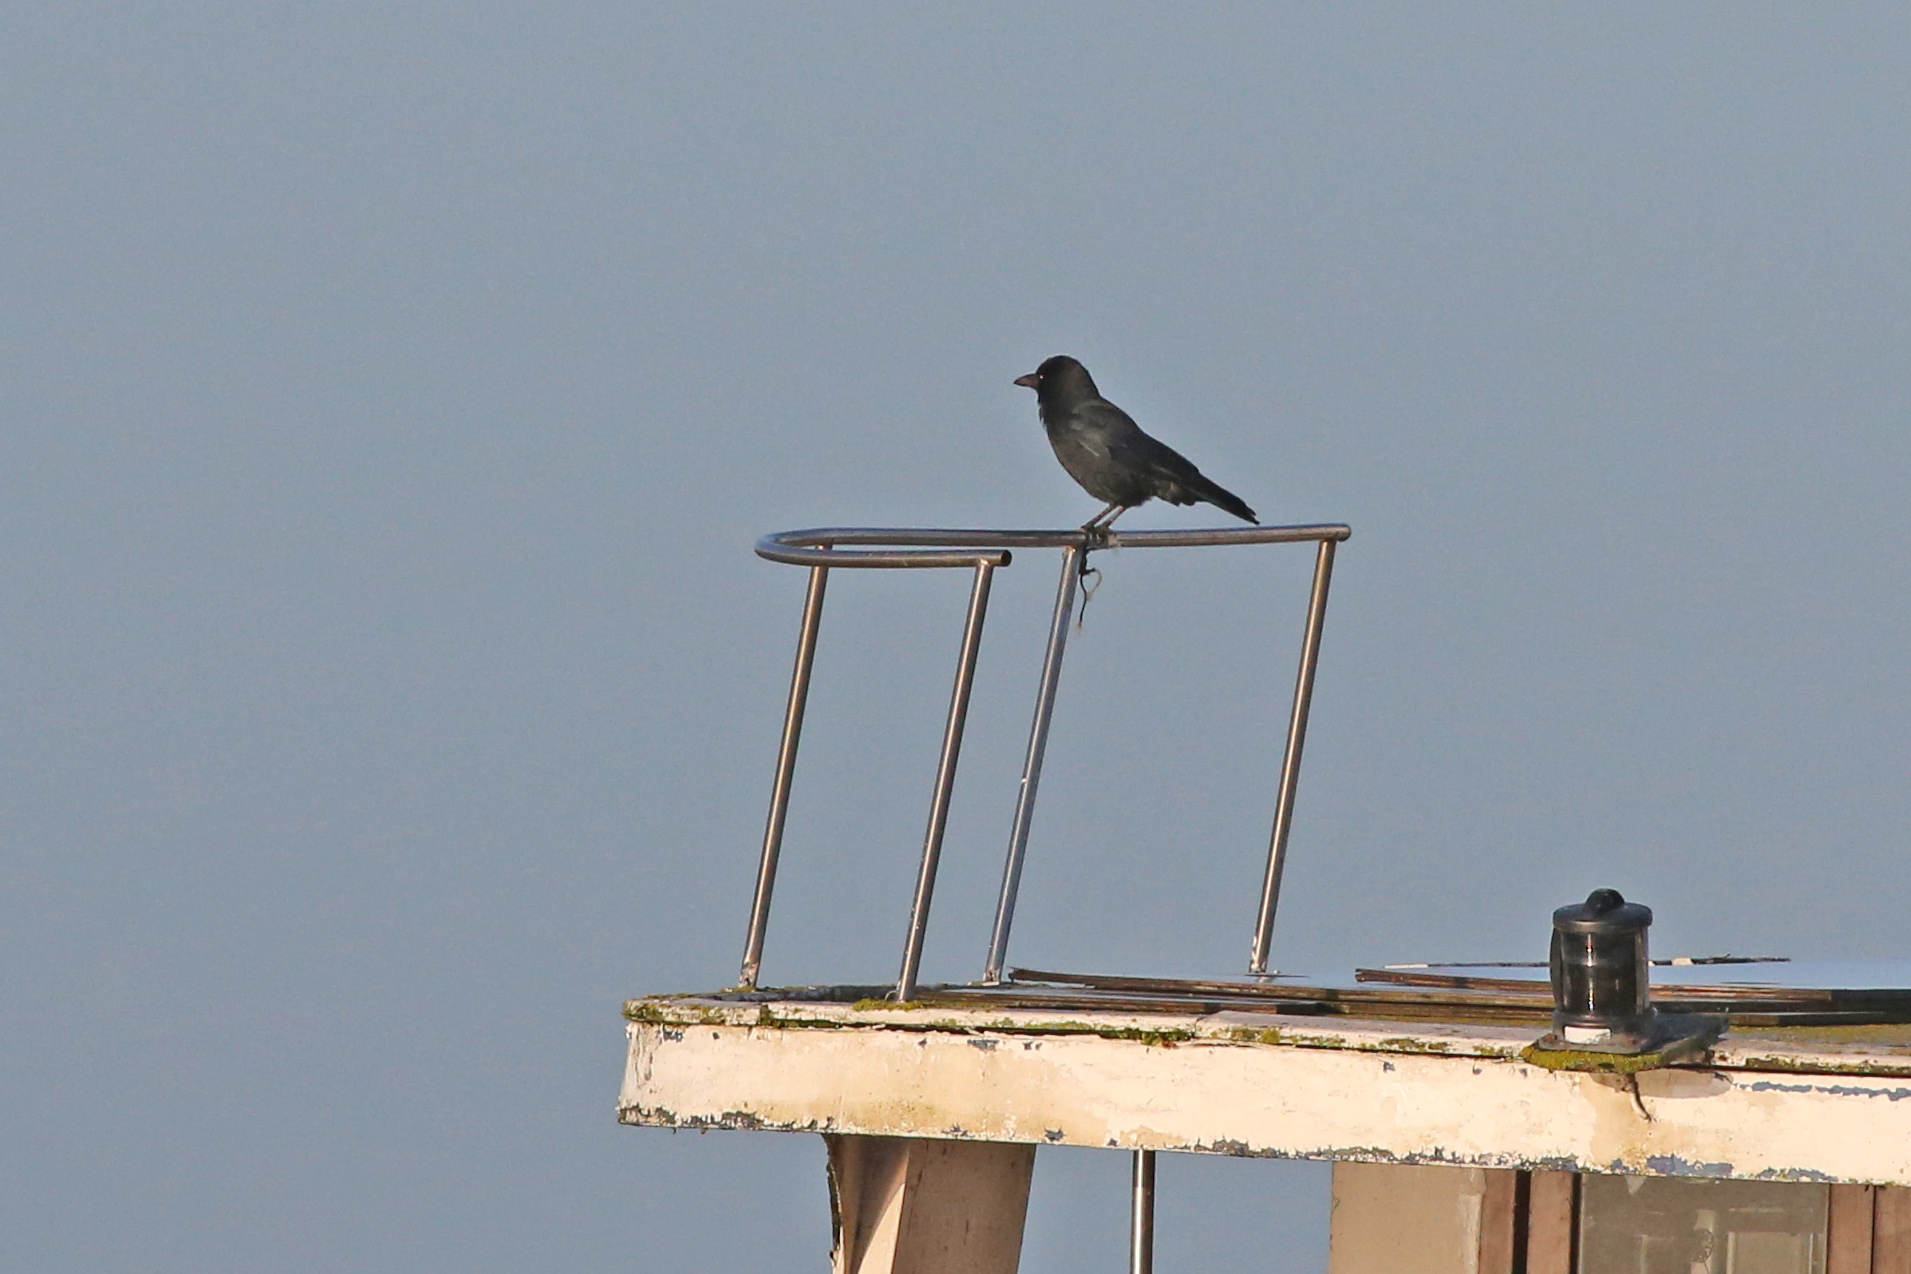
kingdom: Animalia
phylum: Chordata
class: Aves
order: Passeriformes
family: Corvidae
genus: Corvus
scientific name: Corvus corone
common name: Carrion crow
